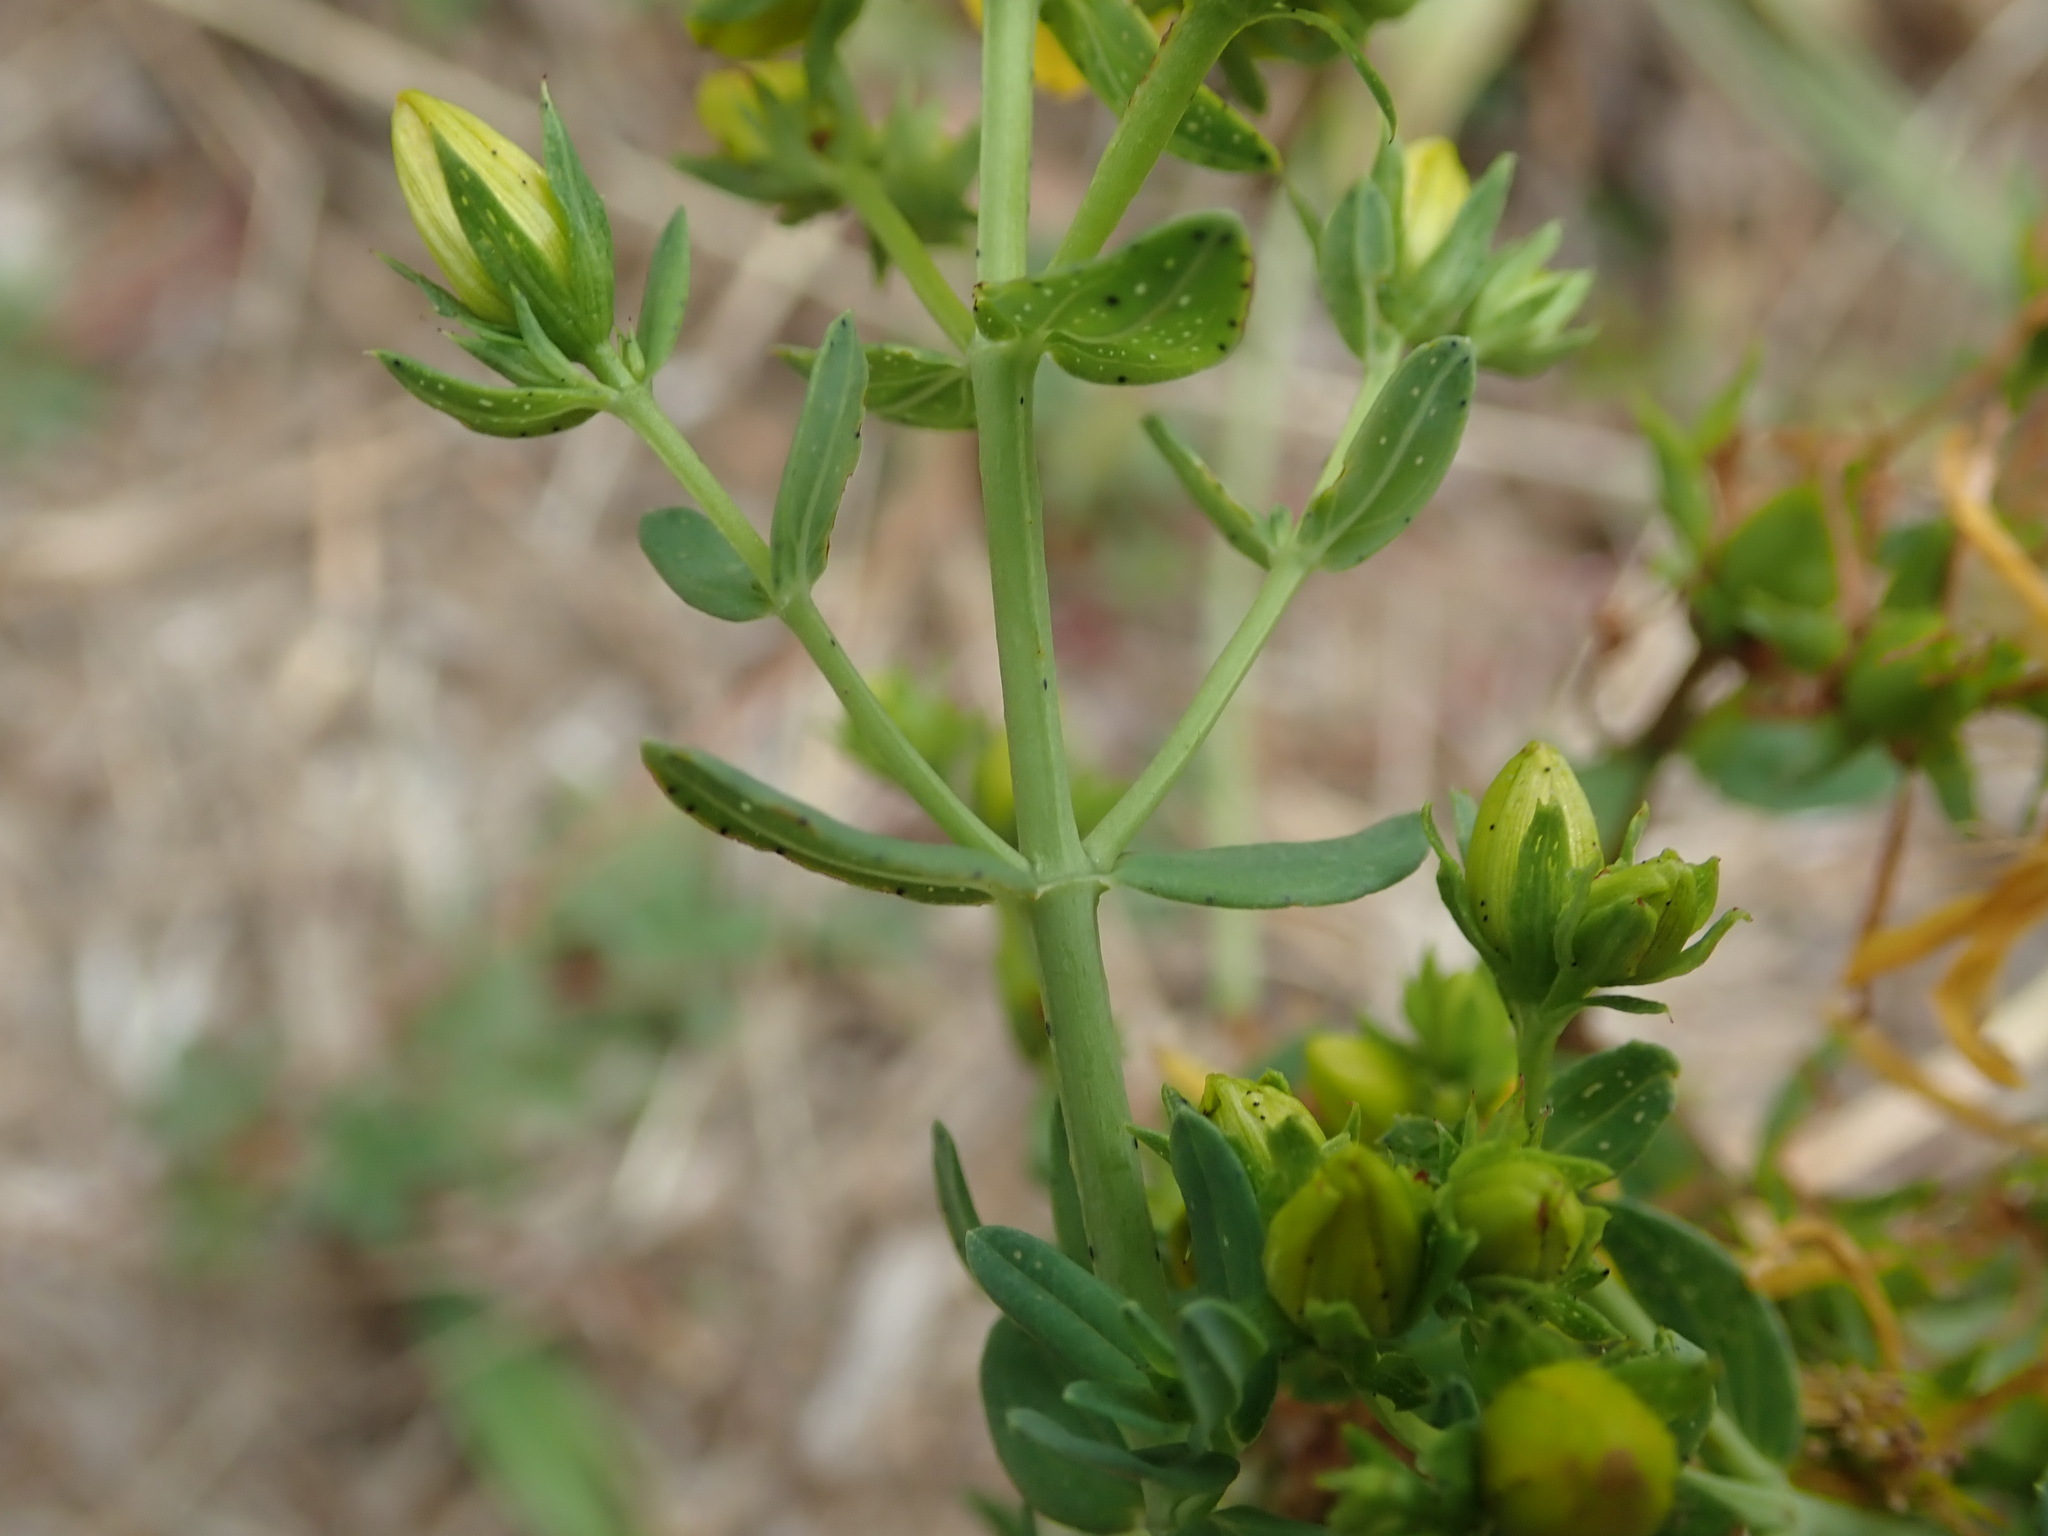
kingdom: Plantae
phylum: Tracheophyta
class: Magnoliopsida
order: Malpighiales
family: Hypericaceae
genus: Hypericum
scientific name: Hypericum perforatum
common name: Common st. johnswort
